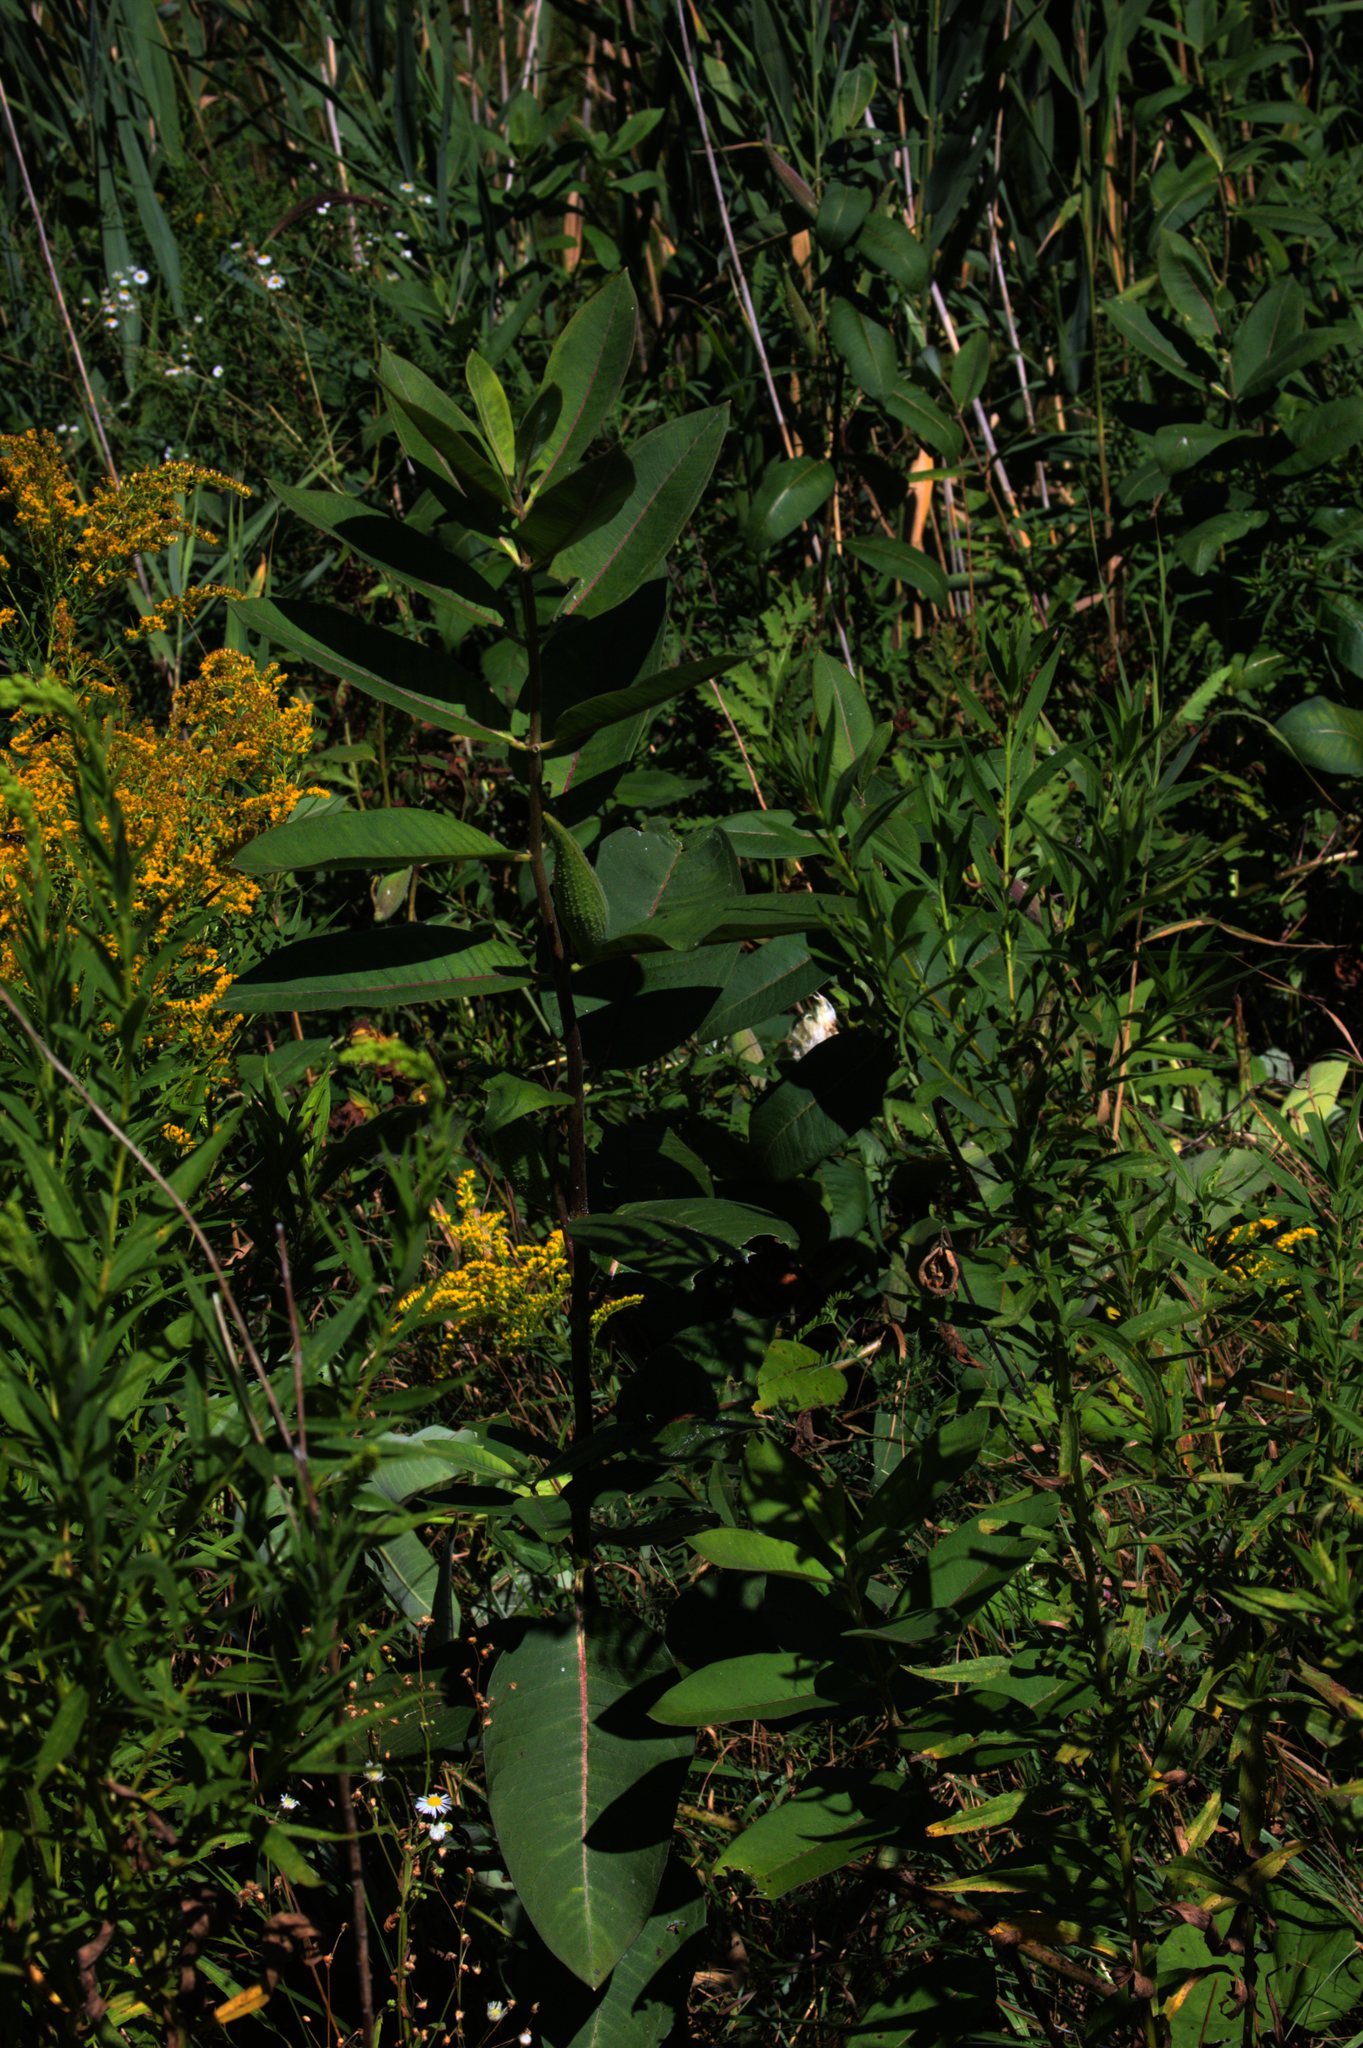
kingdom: Plantae
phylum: Tracheophyta
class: Magnoliopsida
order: Gentianales
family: Apocynaceae
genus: Asclepias
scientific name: Asclepias syriaca
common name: Common milkweed
